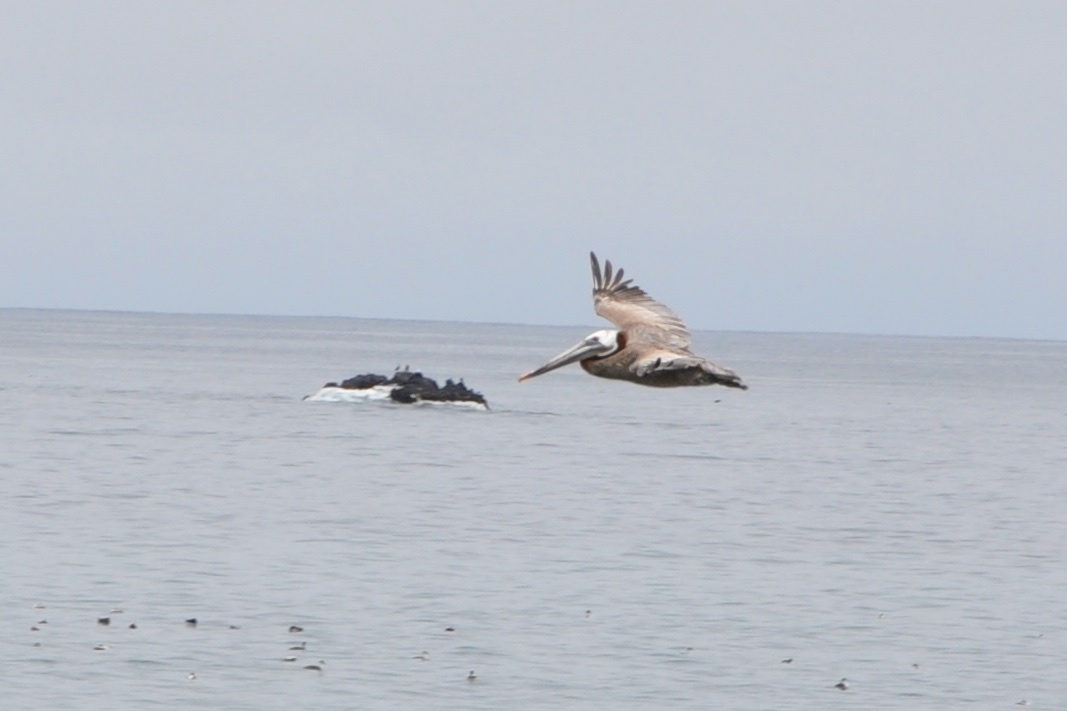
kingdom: Animalia
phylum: Chordata
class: Aves
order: Pelecaniformes
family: Pelecanidae
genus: Pelecanus
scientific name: Pelecanus occidentalis
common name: Brown pelican
